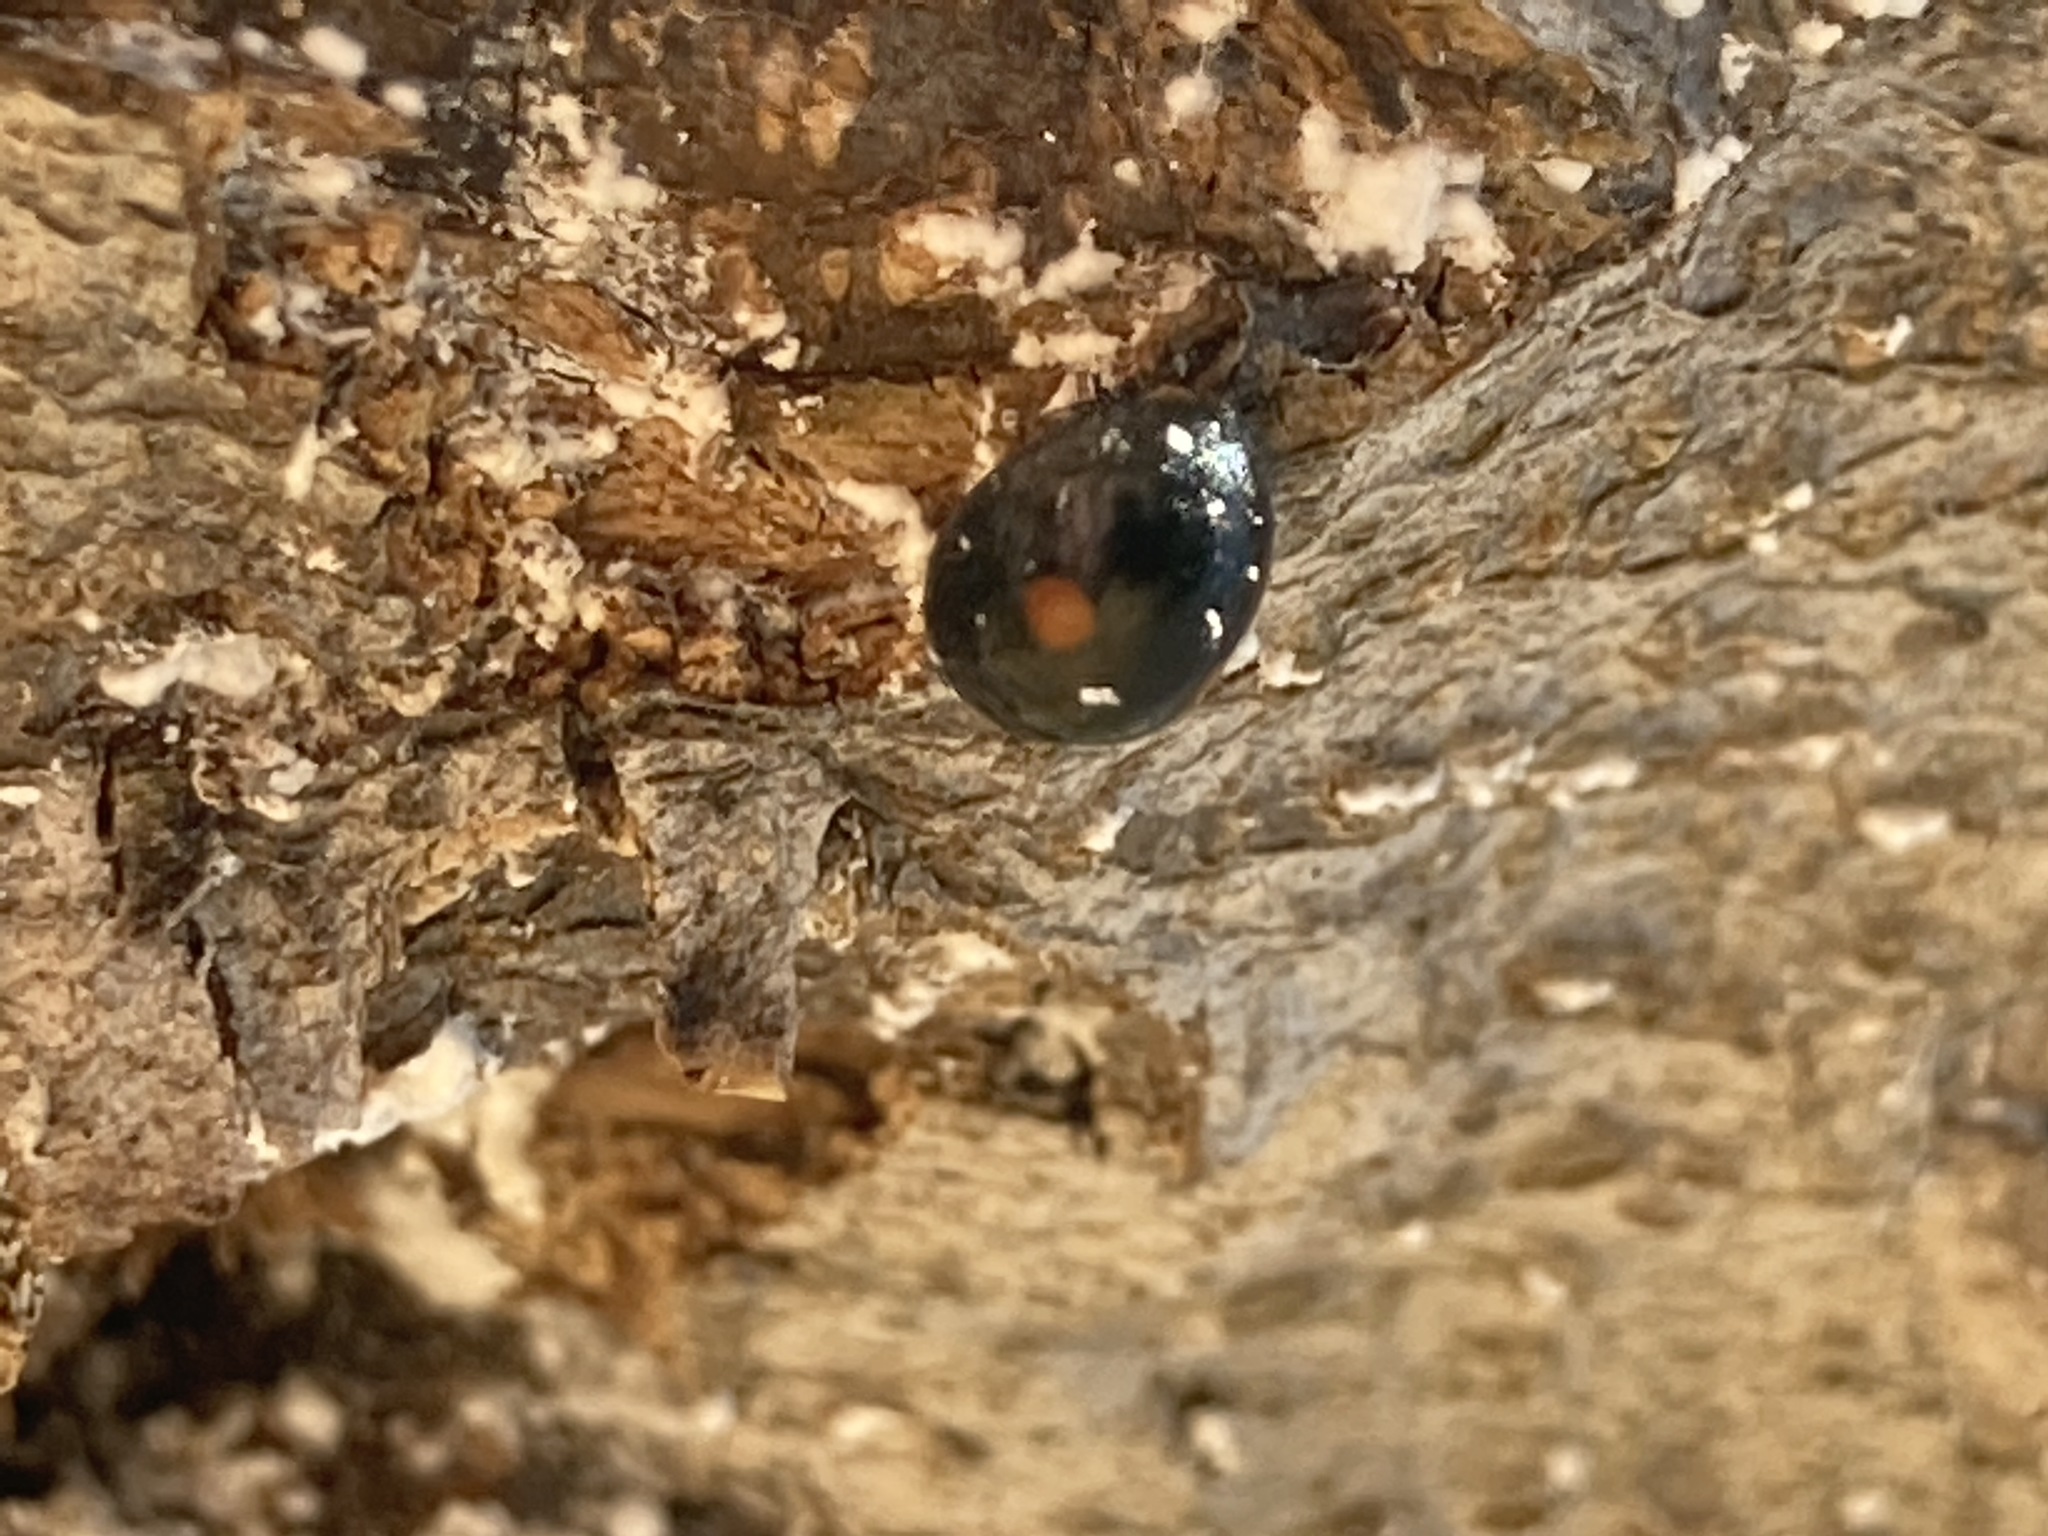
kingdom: Animalia
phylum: Arthropoda
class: Insecta
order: Coleoptera
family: Coccinellidae
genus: Chilocorus
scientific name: Chilocorus stigma
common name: Twicestabbed lady beetle
